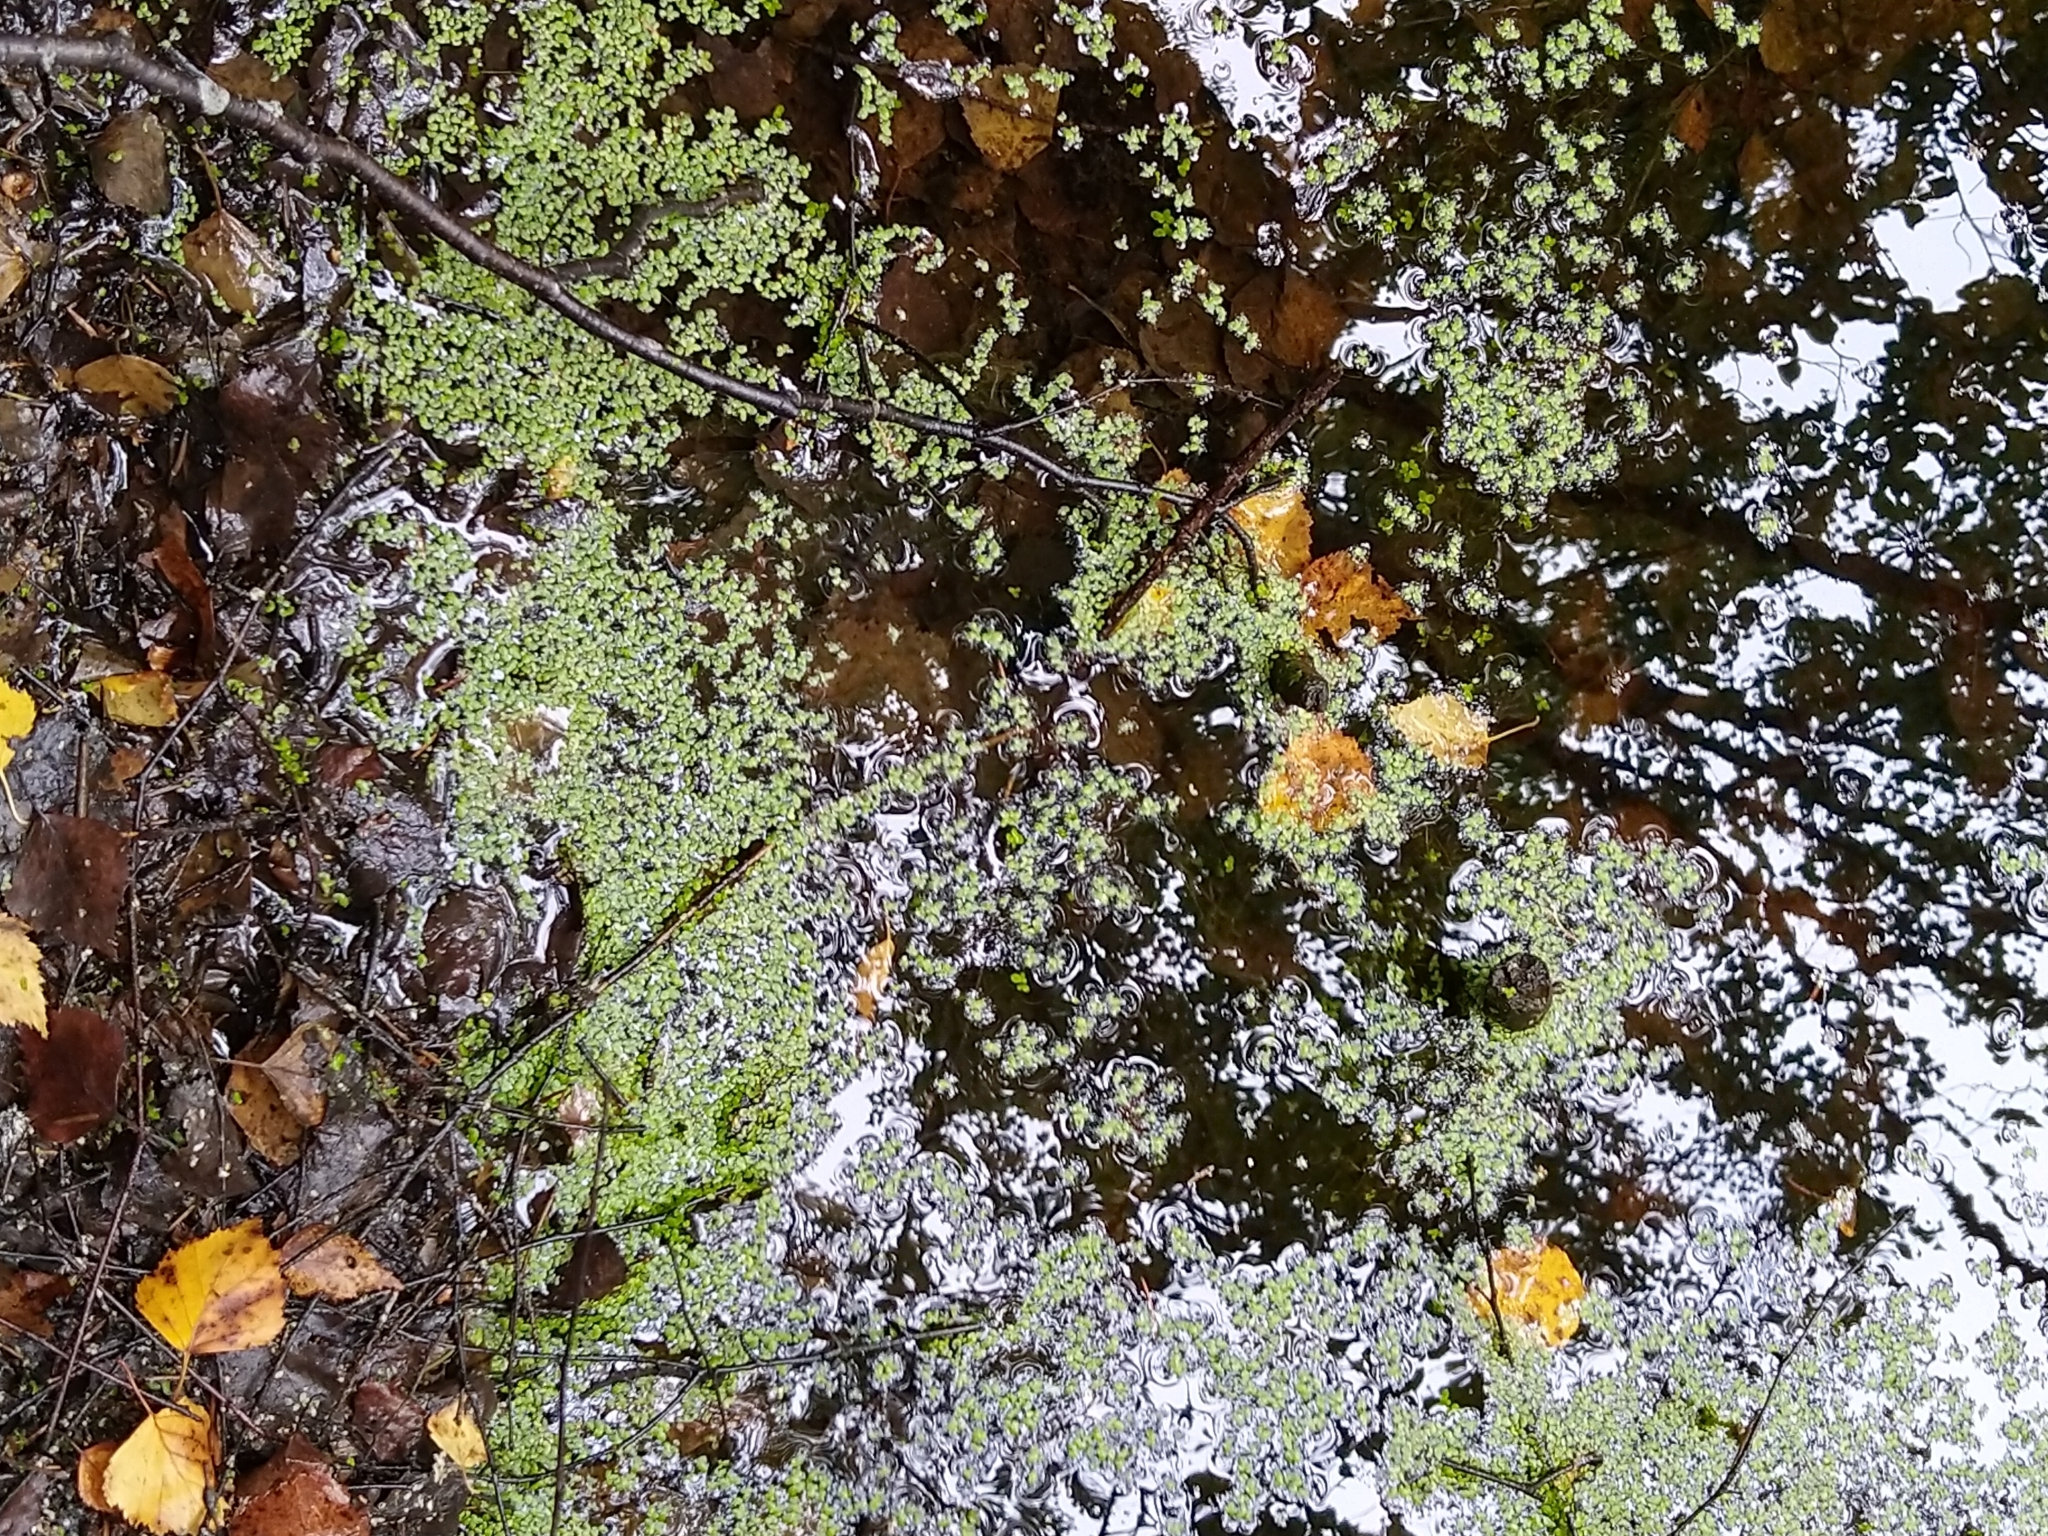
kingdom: Plantae
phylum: Tracheophyta
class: Liliopsida
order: Alismatales
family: Araceae
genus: Lemna
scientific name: Lemna
